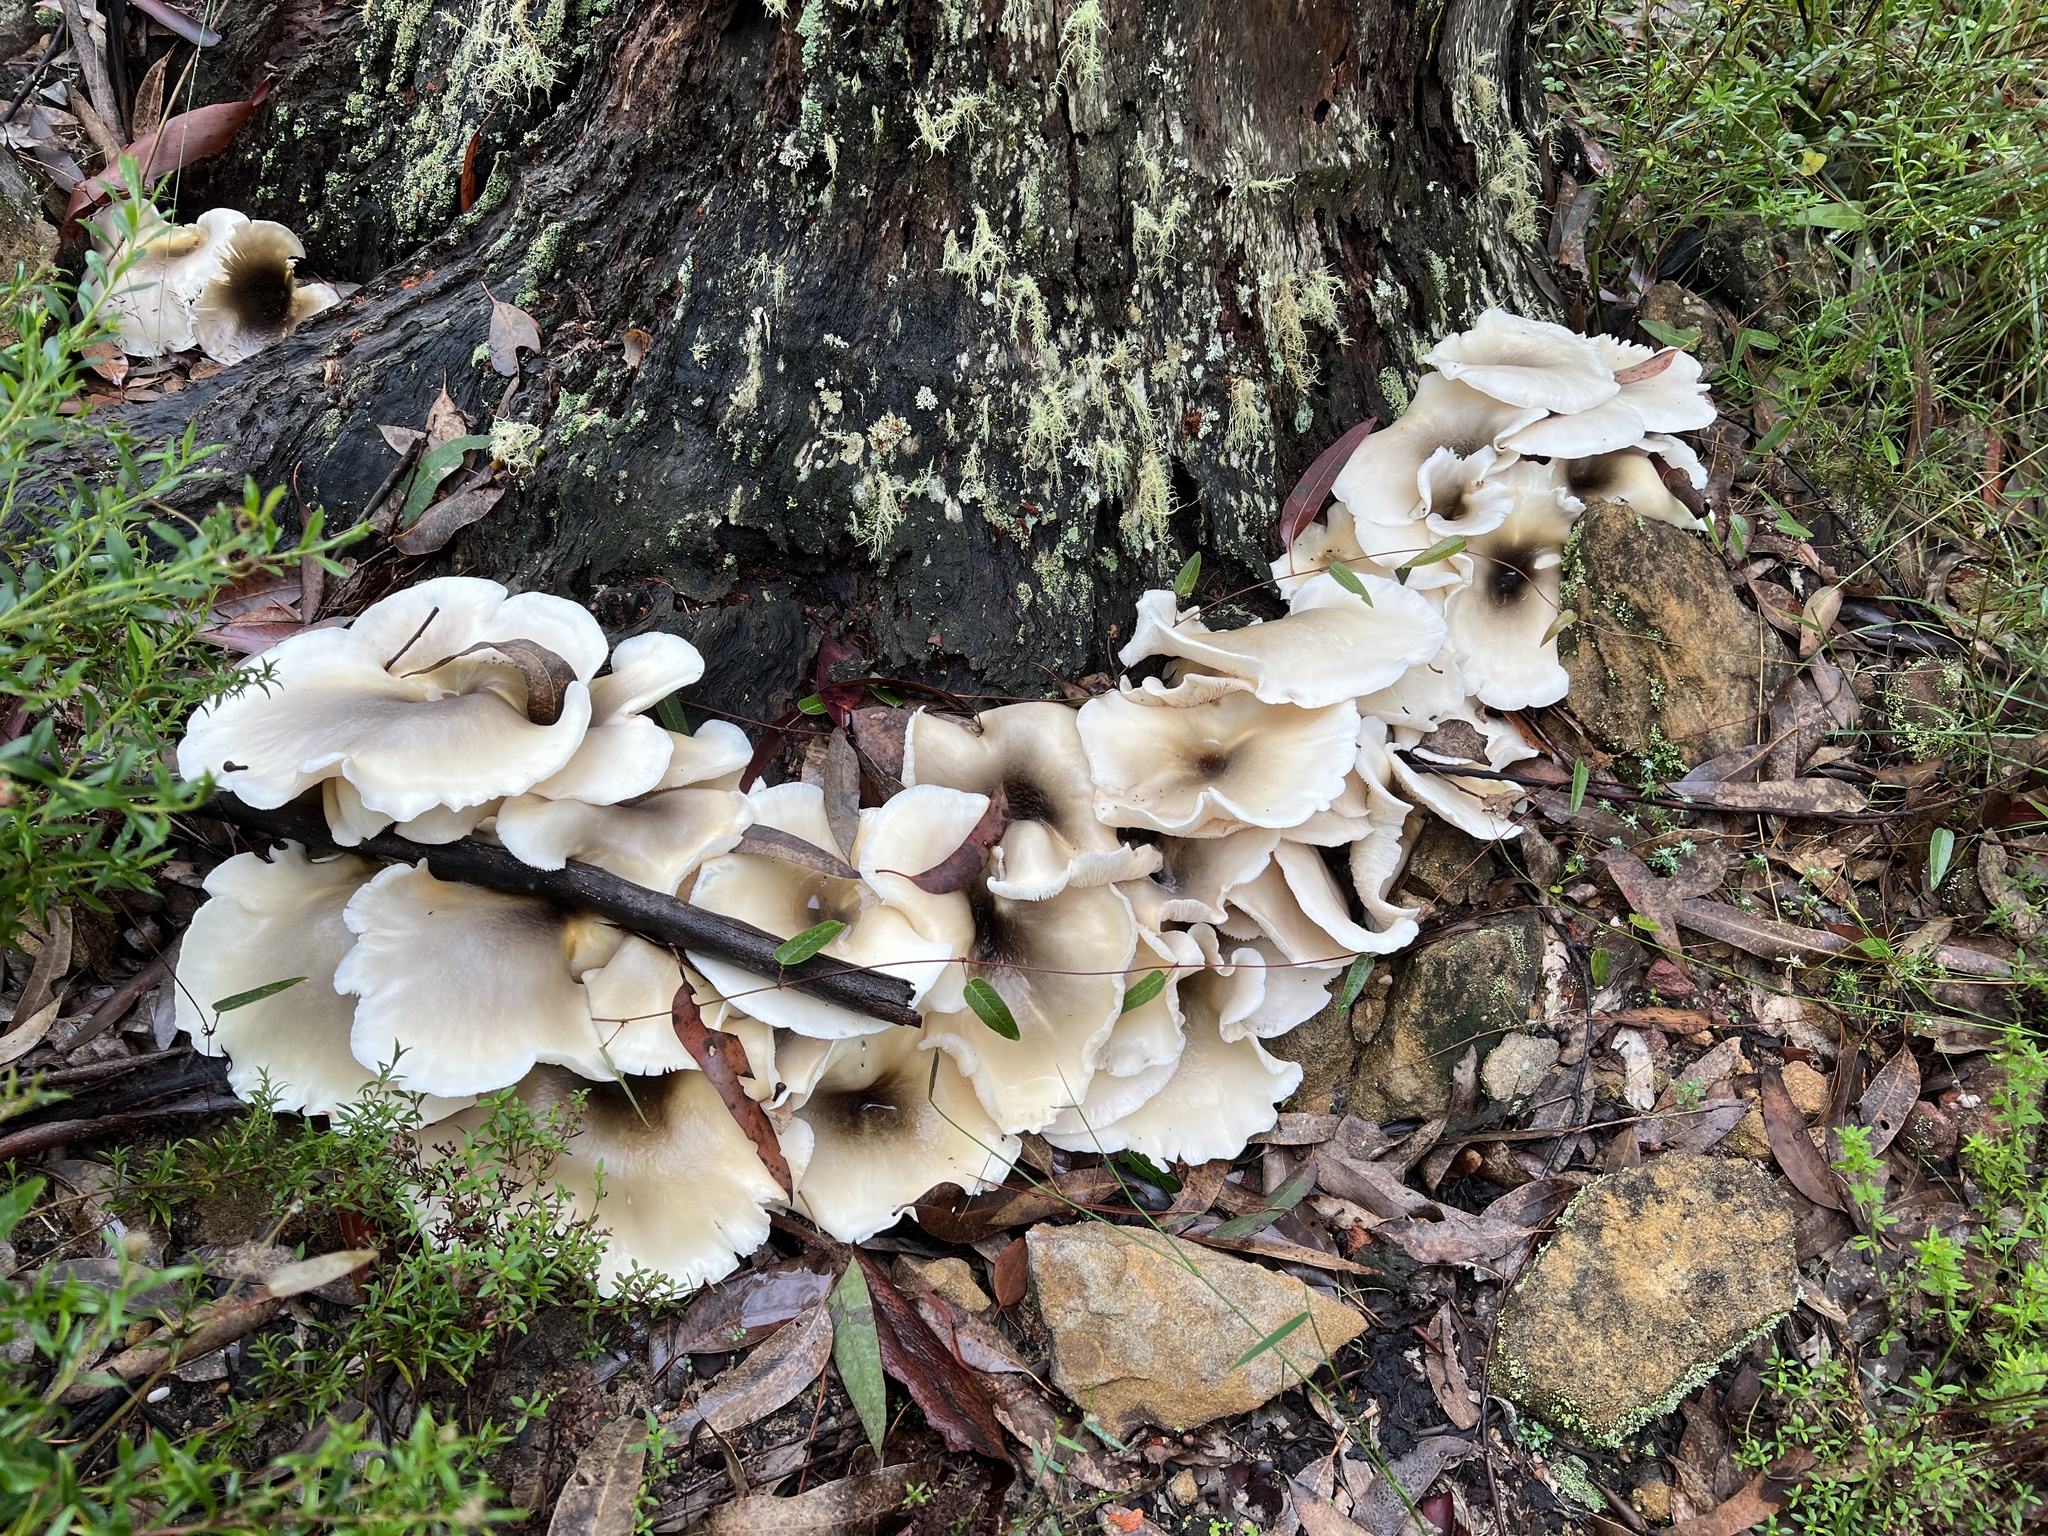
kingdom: Fungi
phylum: Basidiomycota
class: Agaricomycetes
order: Agaricales
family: Omphalotaceae
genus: Omphalotus
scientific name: Omphalotus nidiformis
